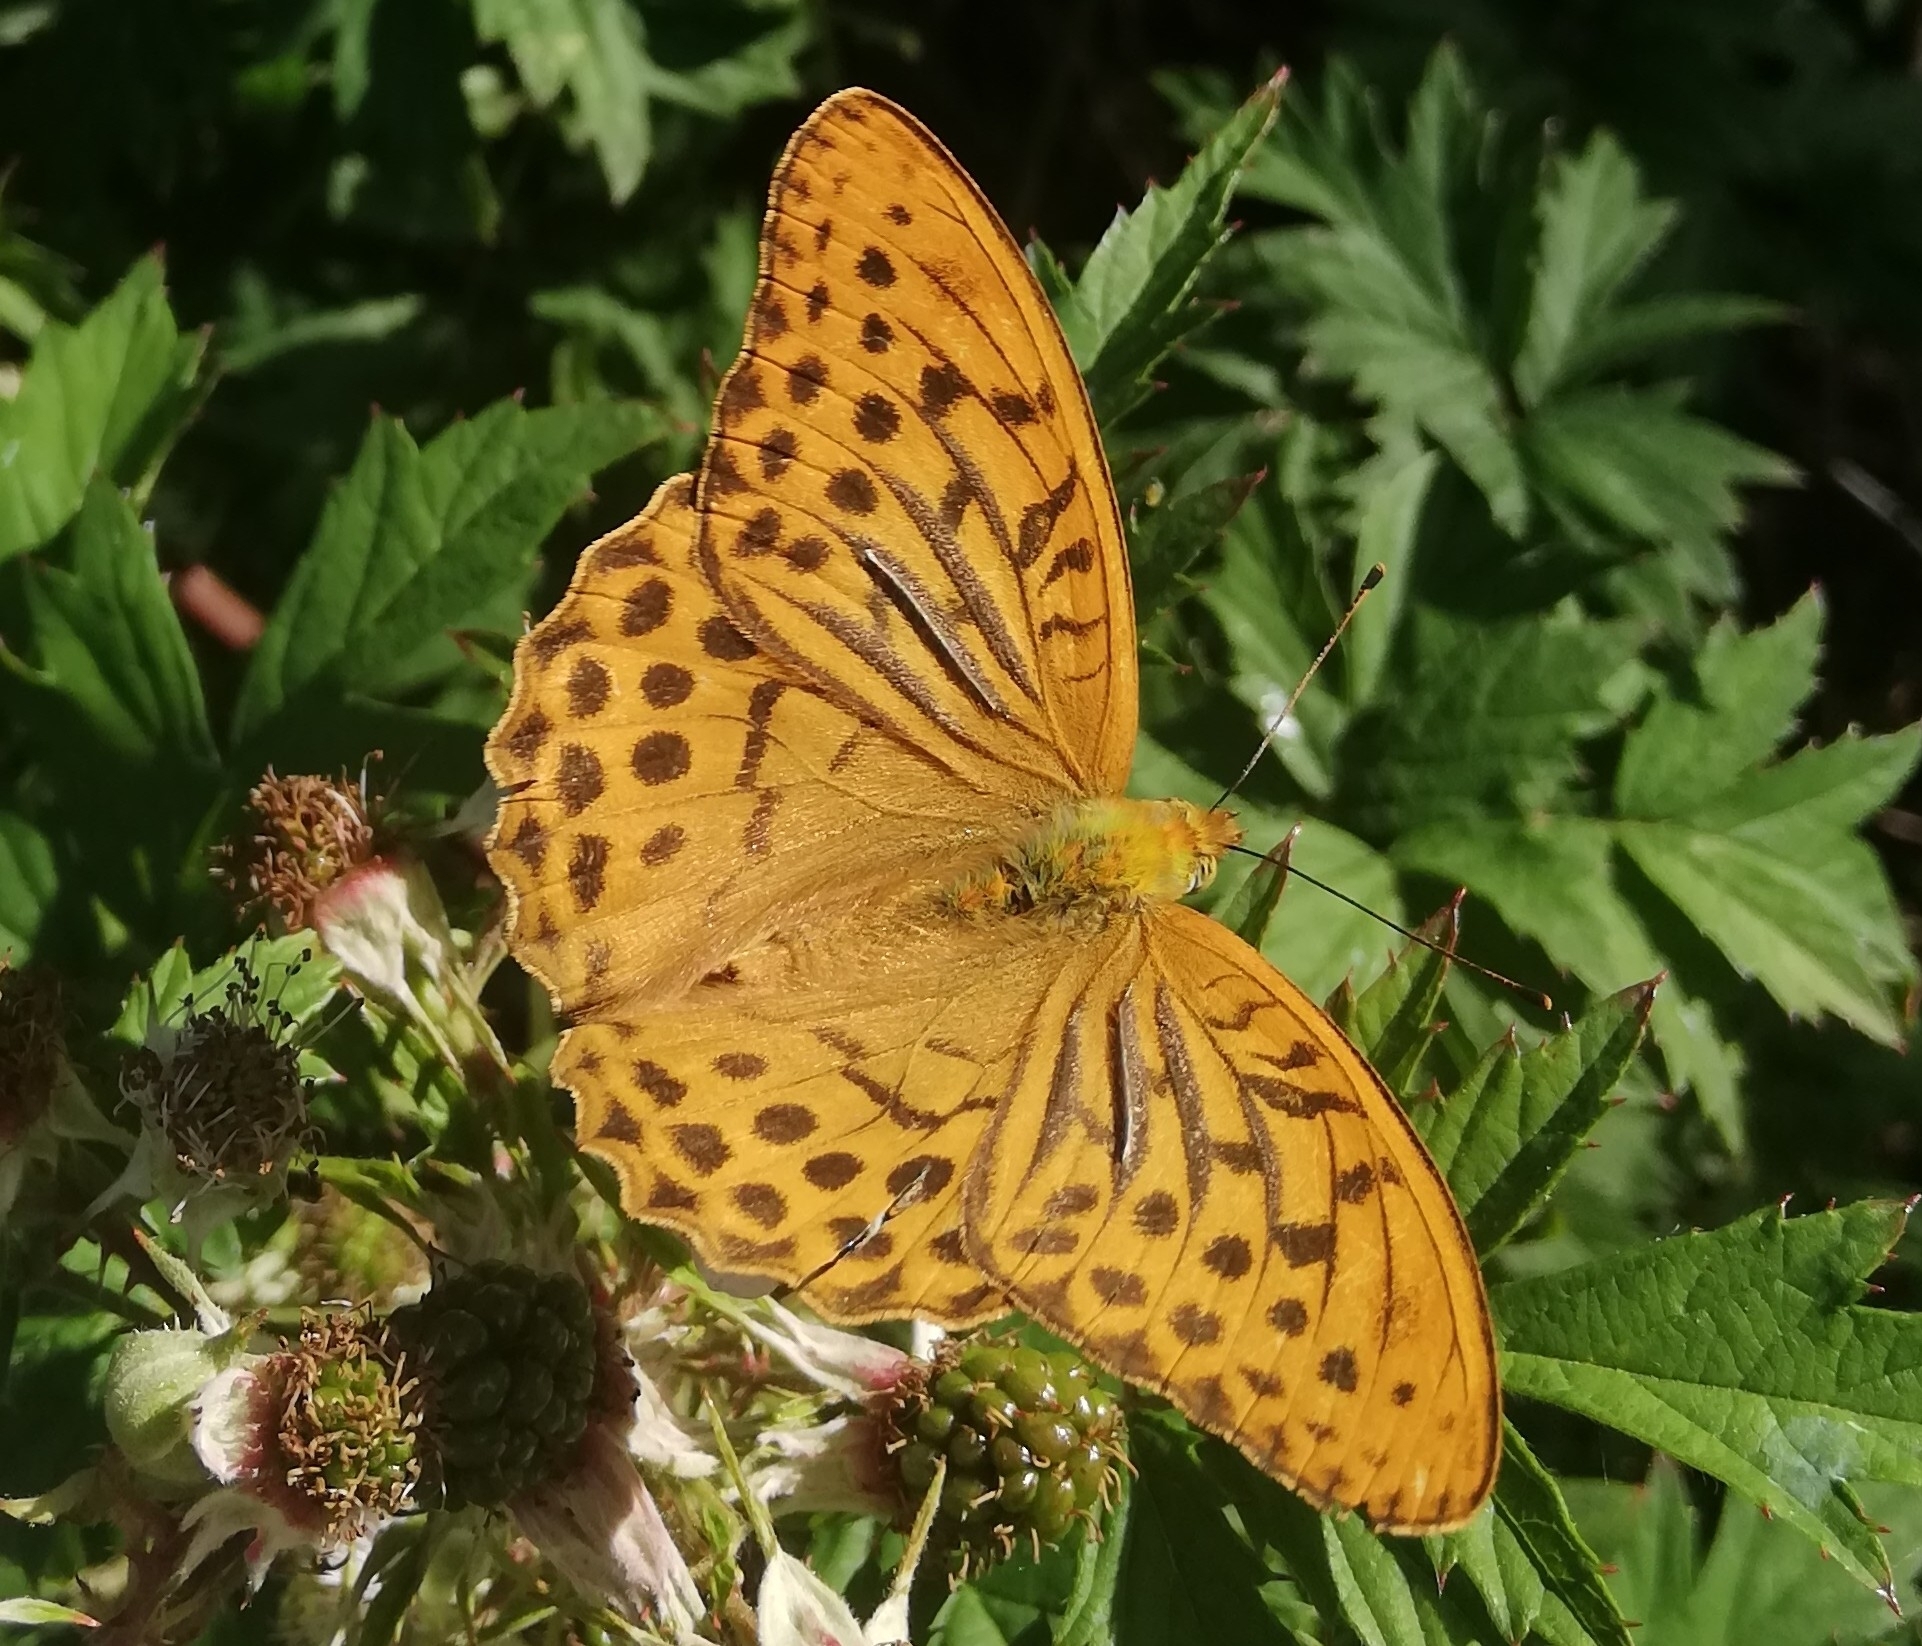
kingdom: Animalia
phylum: Arthropoda
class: Insecta
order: Lepidoptera
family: Nymphalidae
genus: Argynnis
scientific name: Argynnis paphia
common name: Silver-washed fritillary
